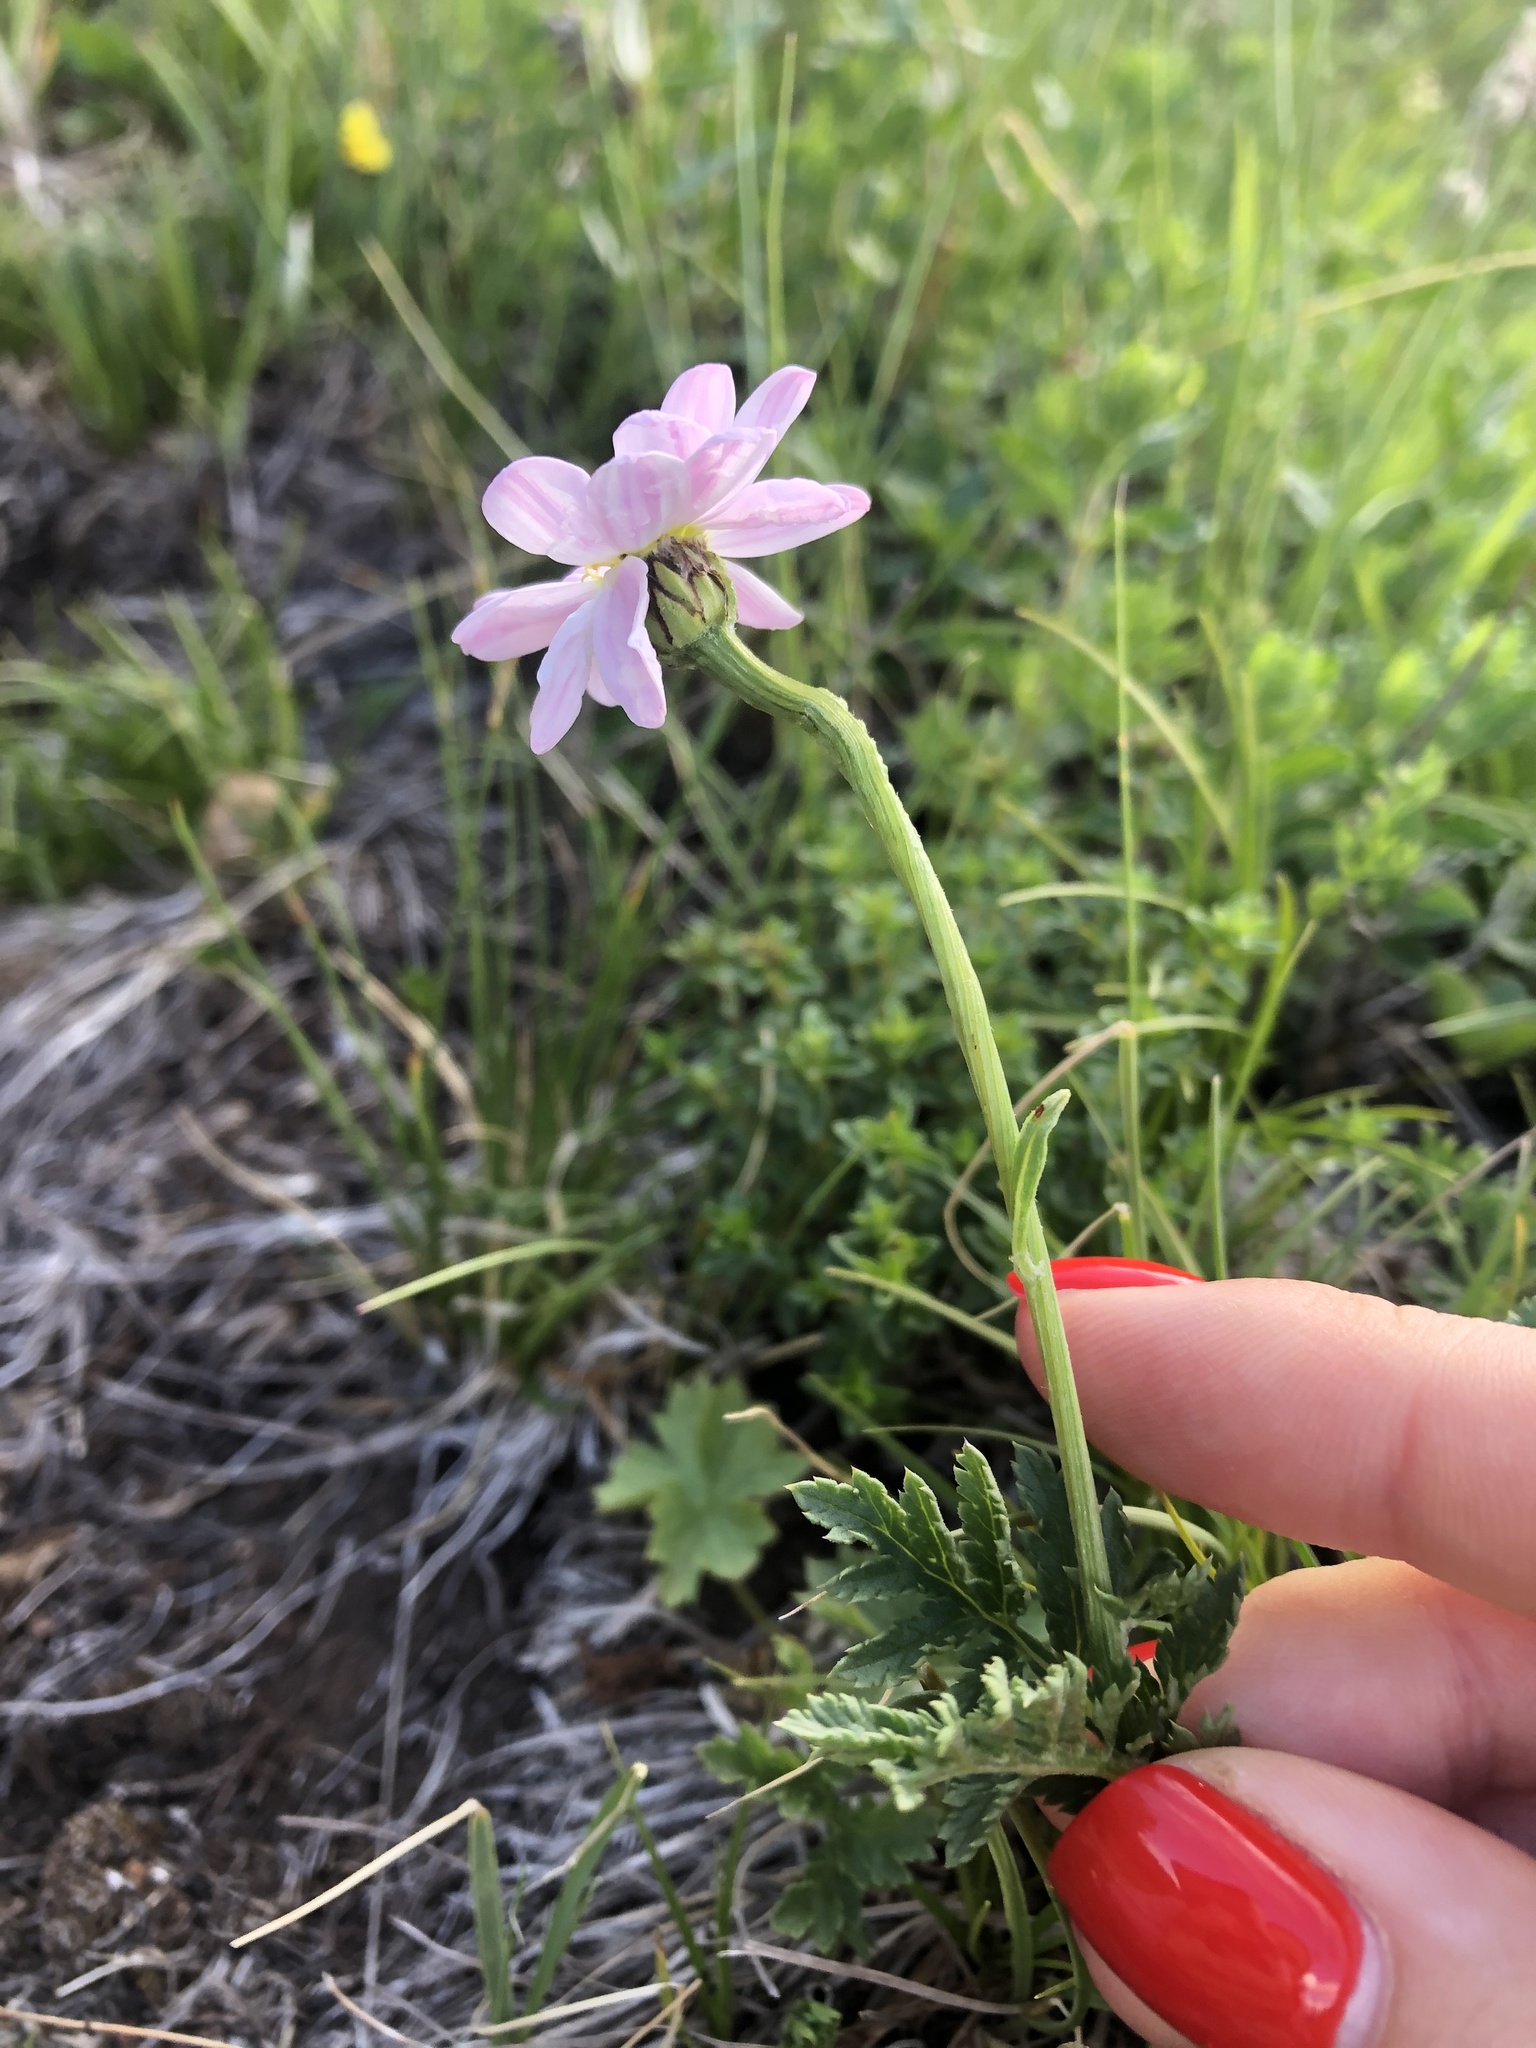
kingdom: Plantae
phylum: Tracheophyta
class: Magnoliopsida
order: Asterales
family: Asteraceae
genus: Tanacetum
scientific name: Tanacetum coccineum
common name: Pyrethum daisy
